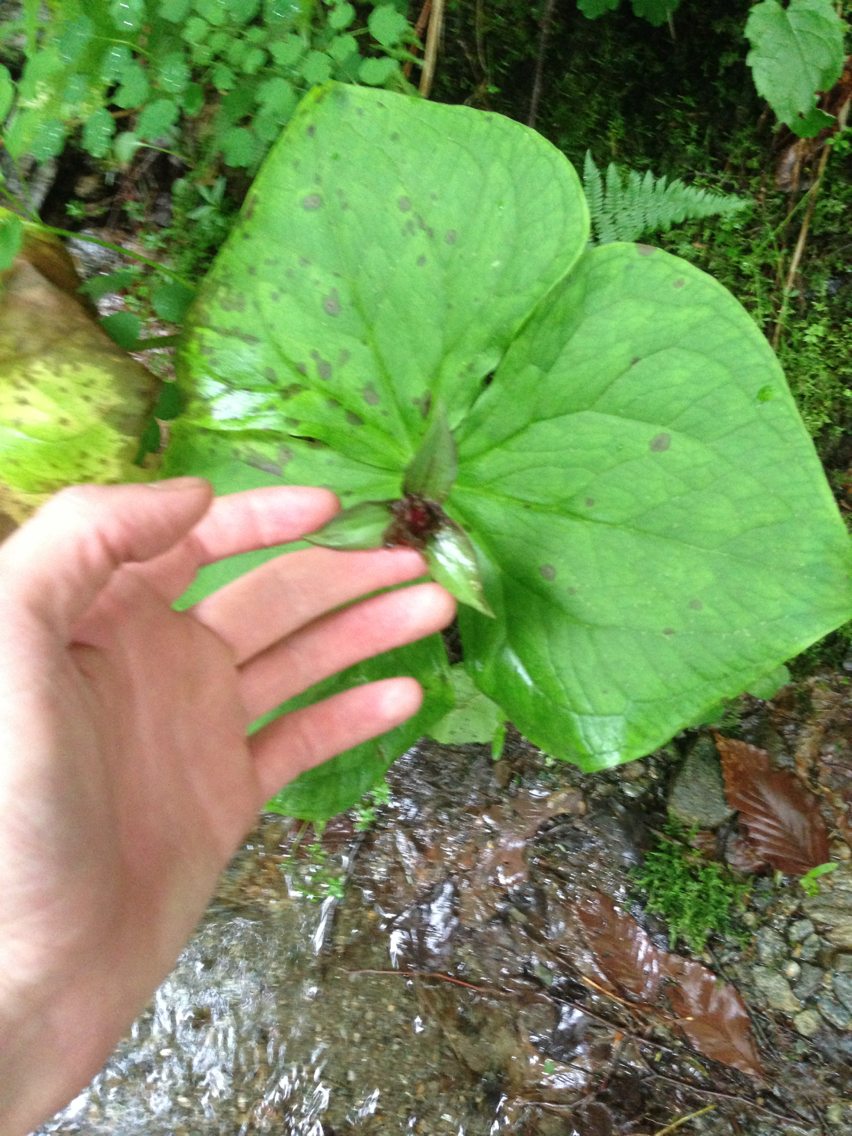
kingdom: Plantae
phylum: Tracheophyta
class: Liliopsida
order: Liliales
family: Melanthiaceae
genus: Trillium
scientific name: Trillium erectum
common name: Purple trillium
